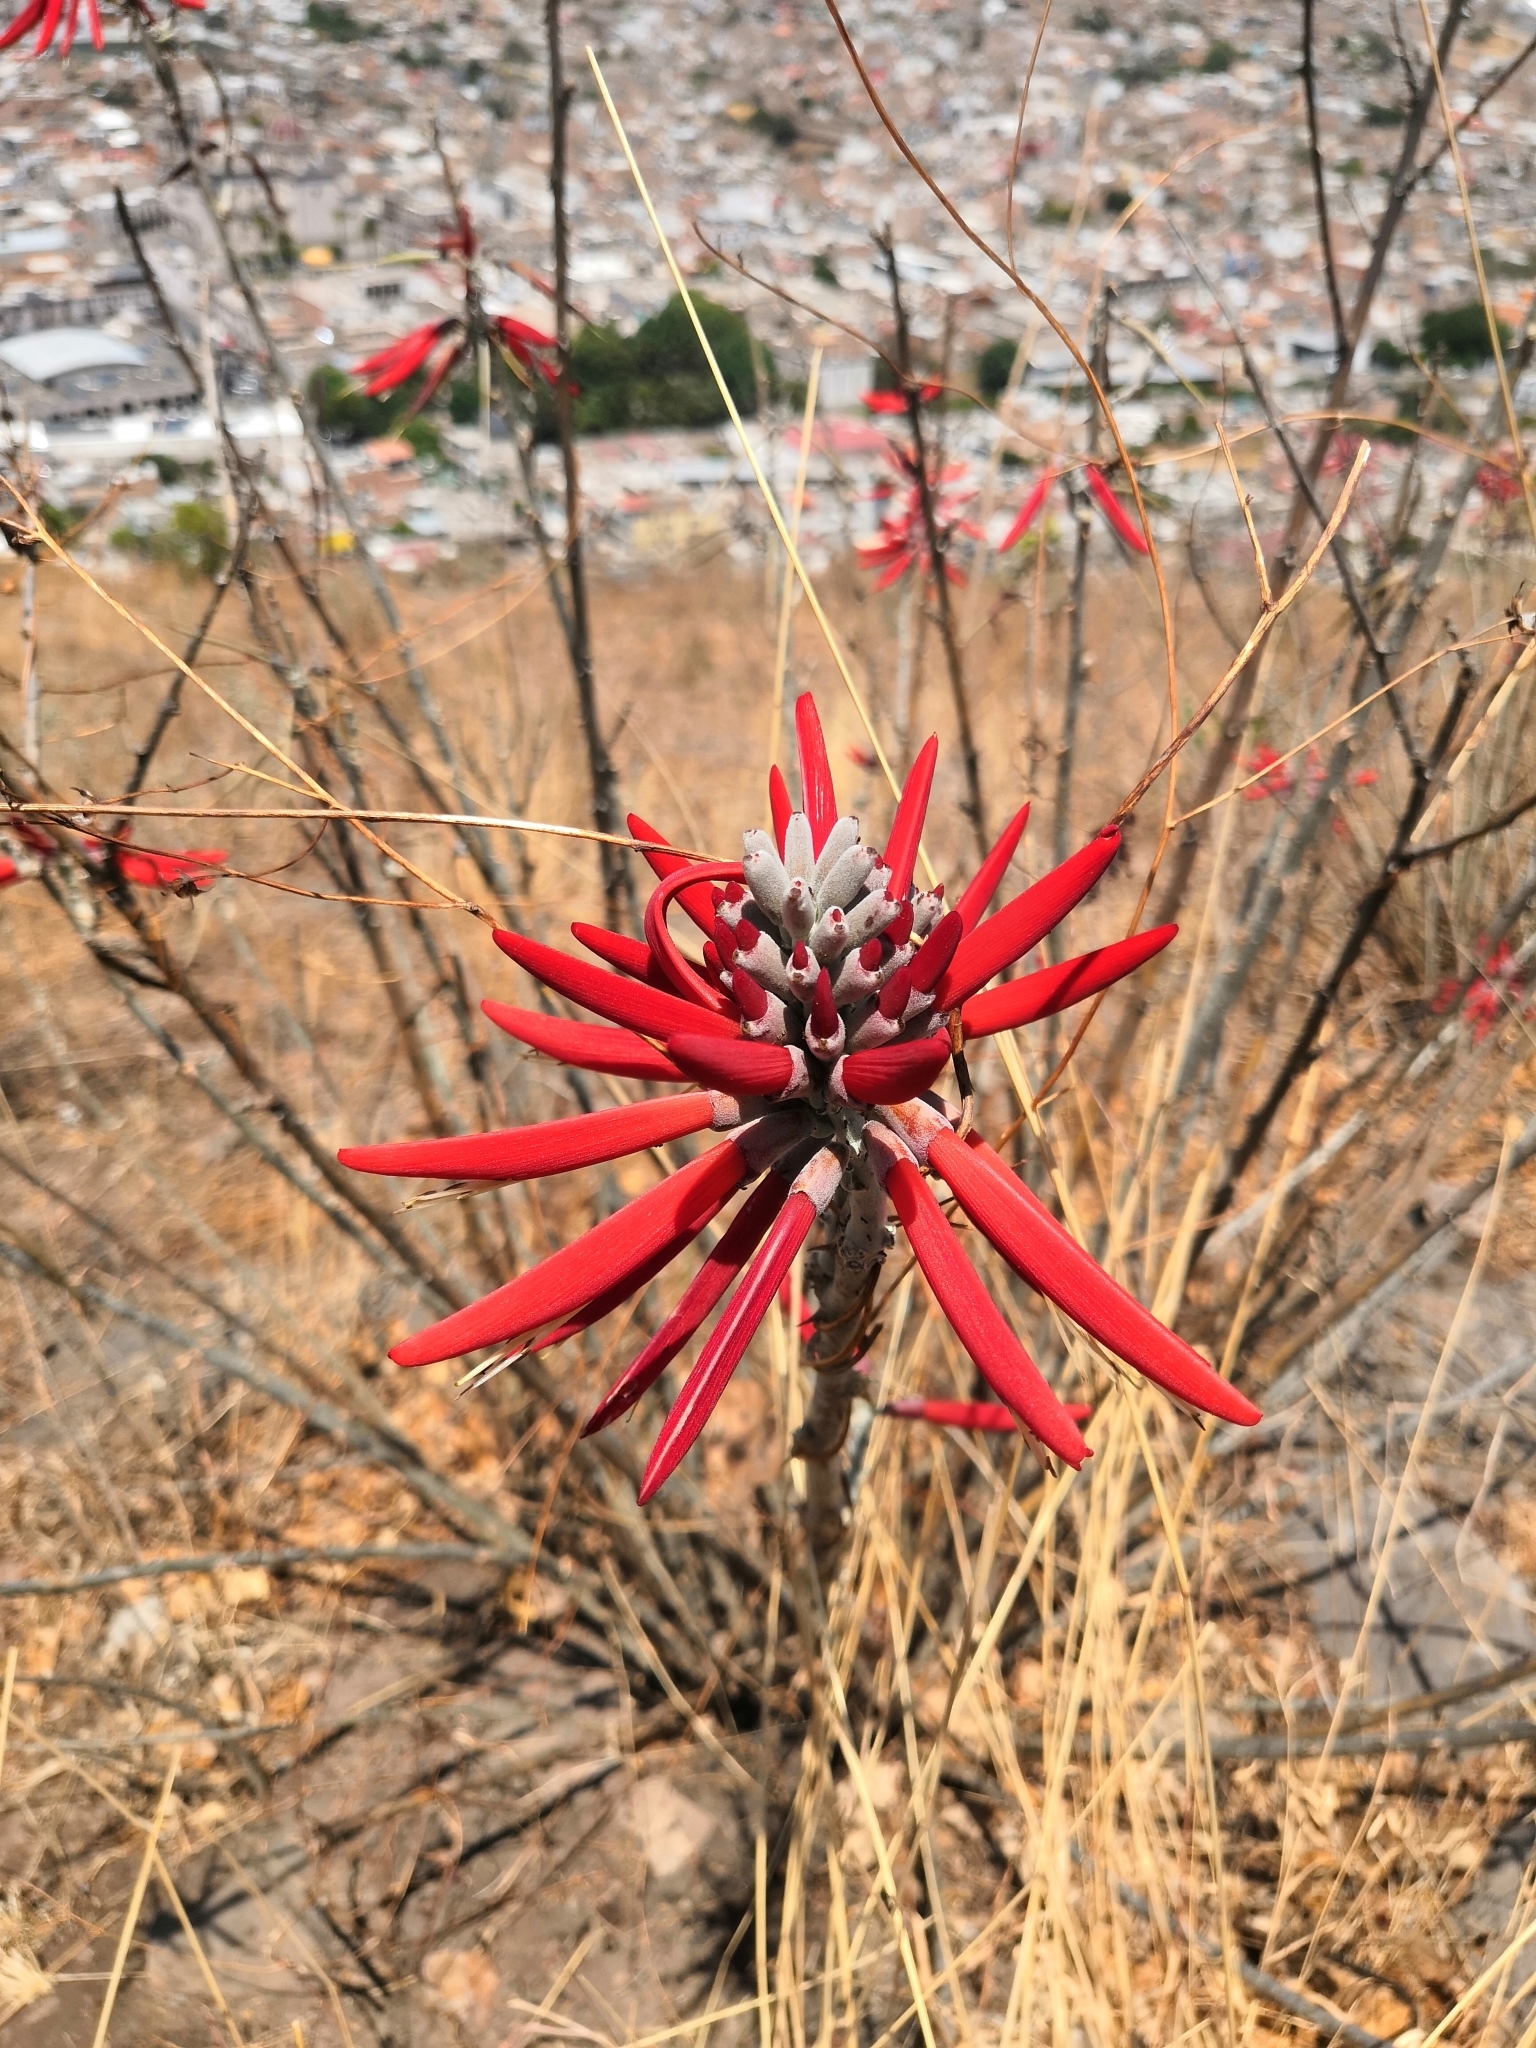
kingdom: Plantae
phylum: Tracheophyta
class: Magnoliopsida
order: Fabales
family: Fabaceae
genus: Erythrina
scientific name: Erythrina flabelliformis
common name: Chilicote
